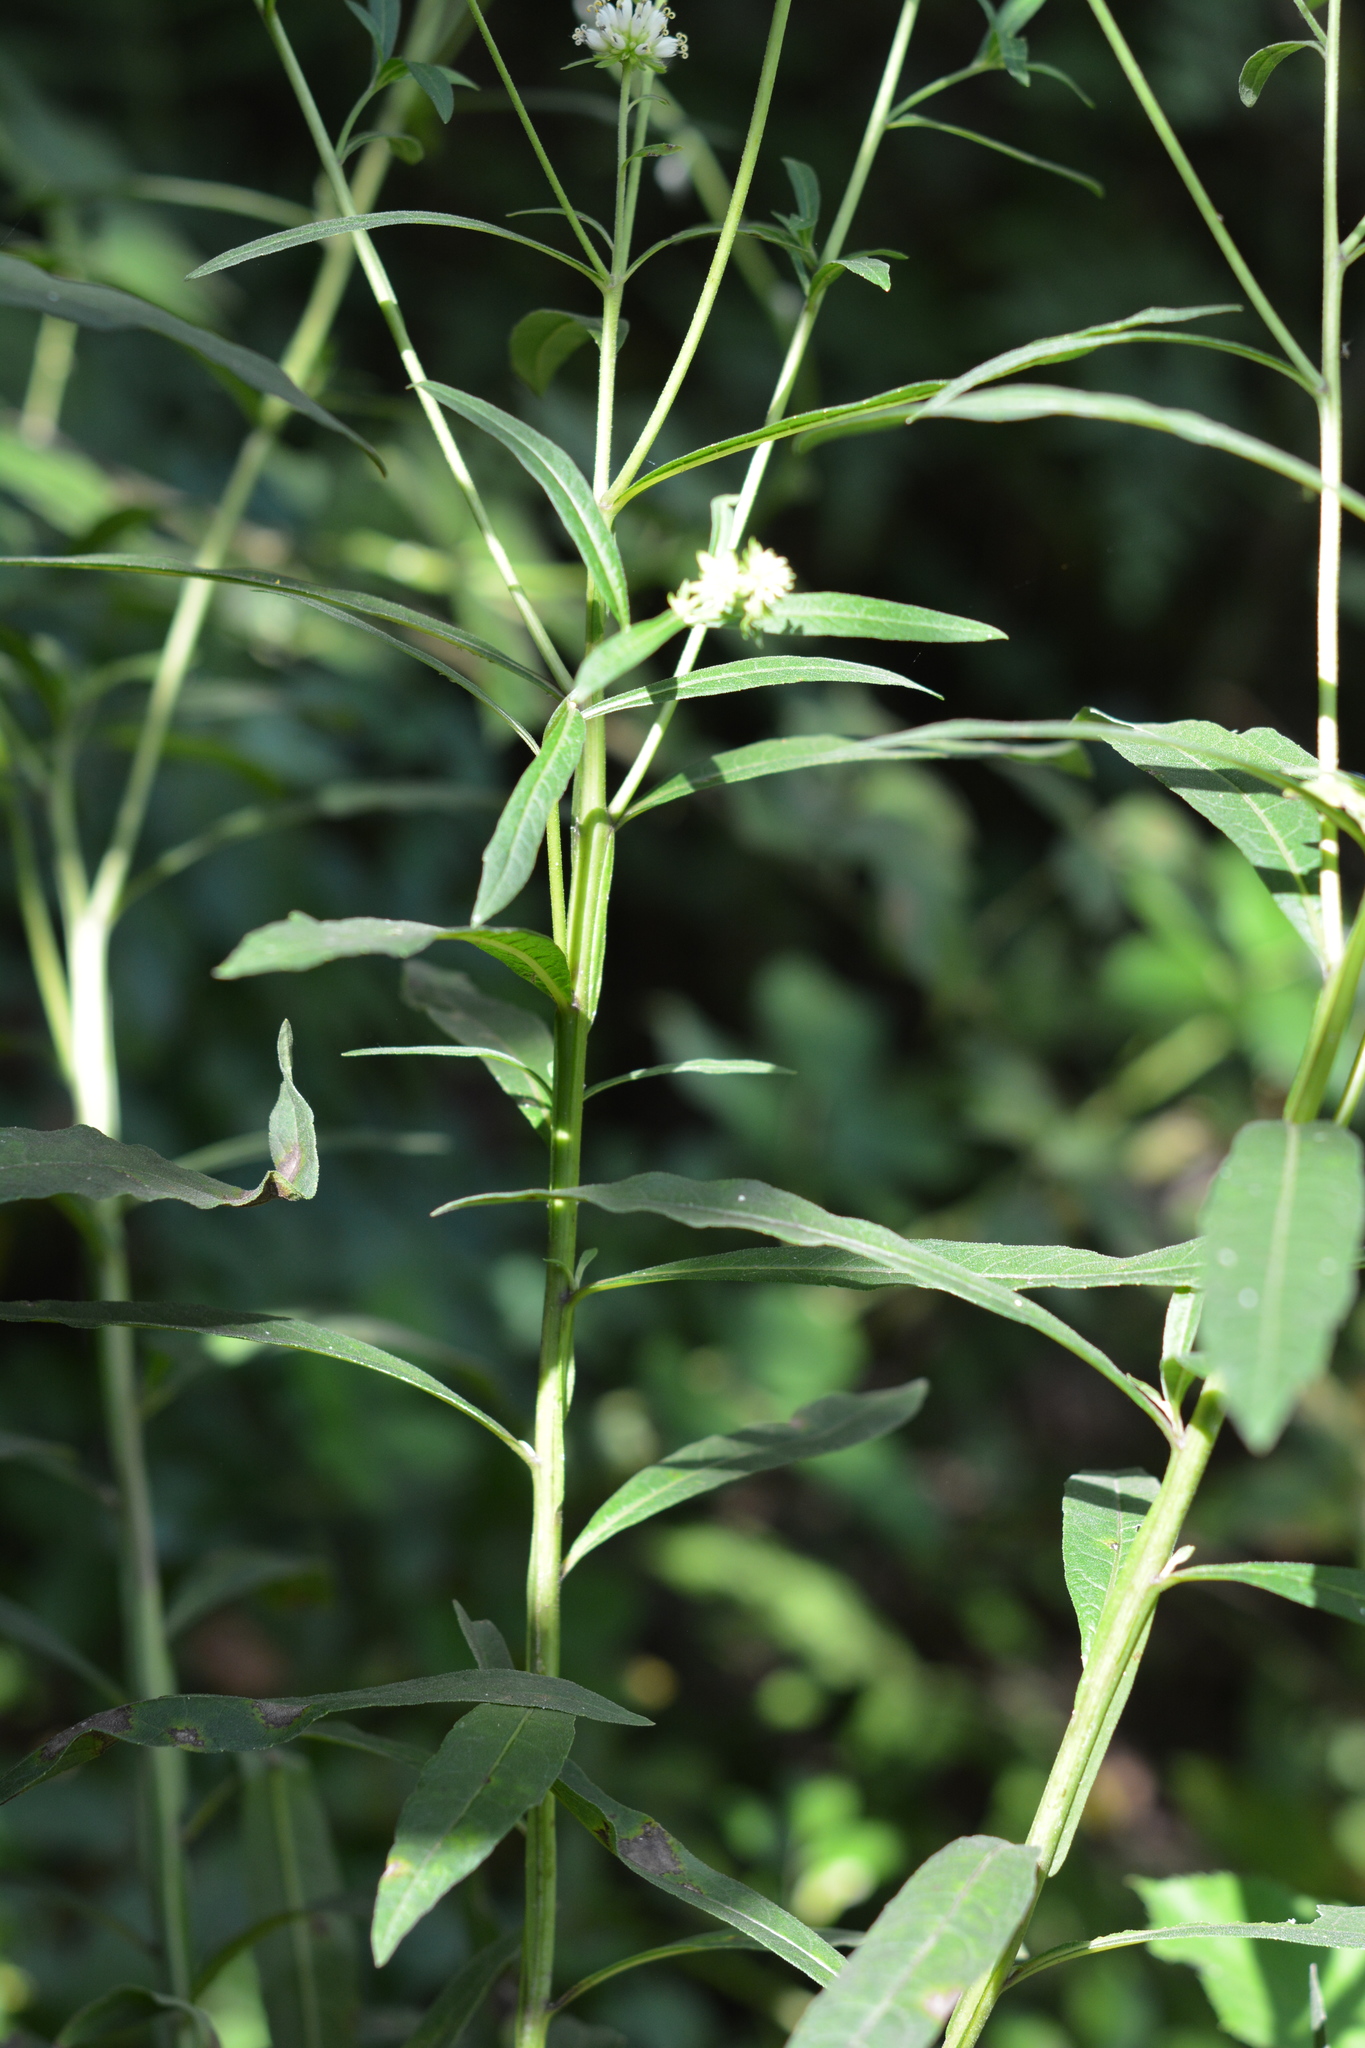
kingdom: Plantae
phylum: Tracheophyta
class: Magnoliopsida
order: Asterales
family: Asteraceae
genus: Verbesina
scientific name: Verbesina walteri
